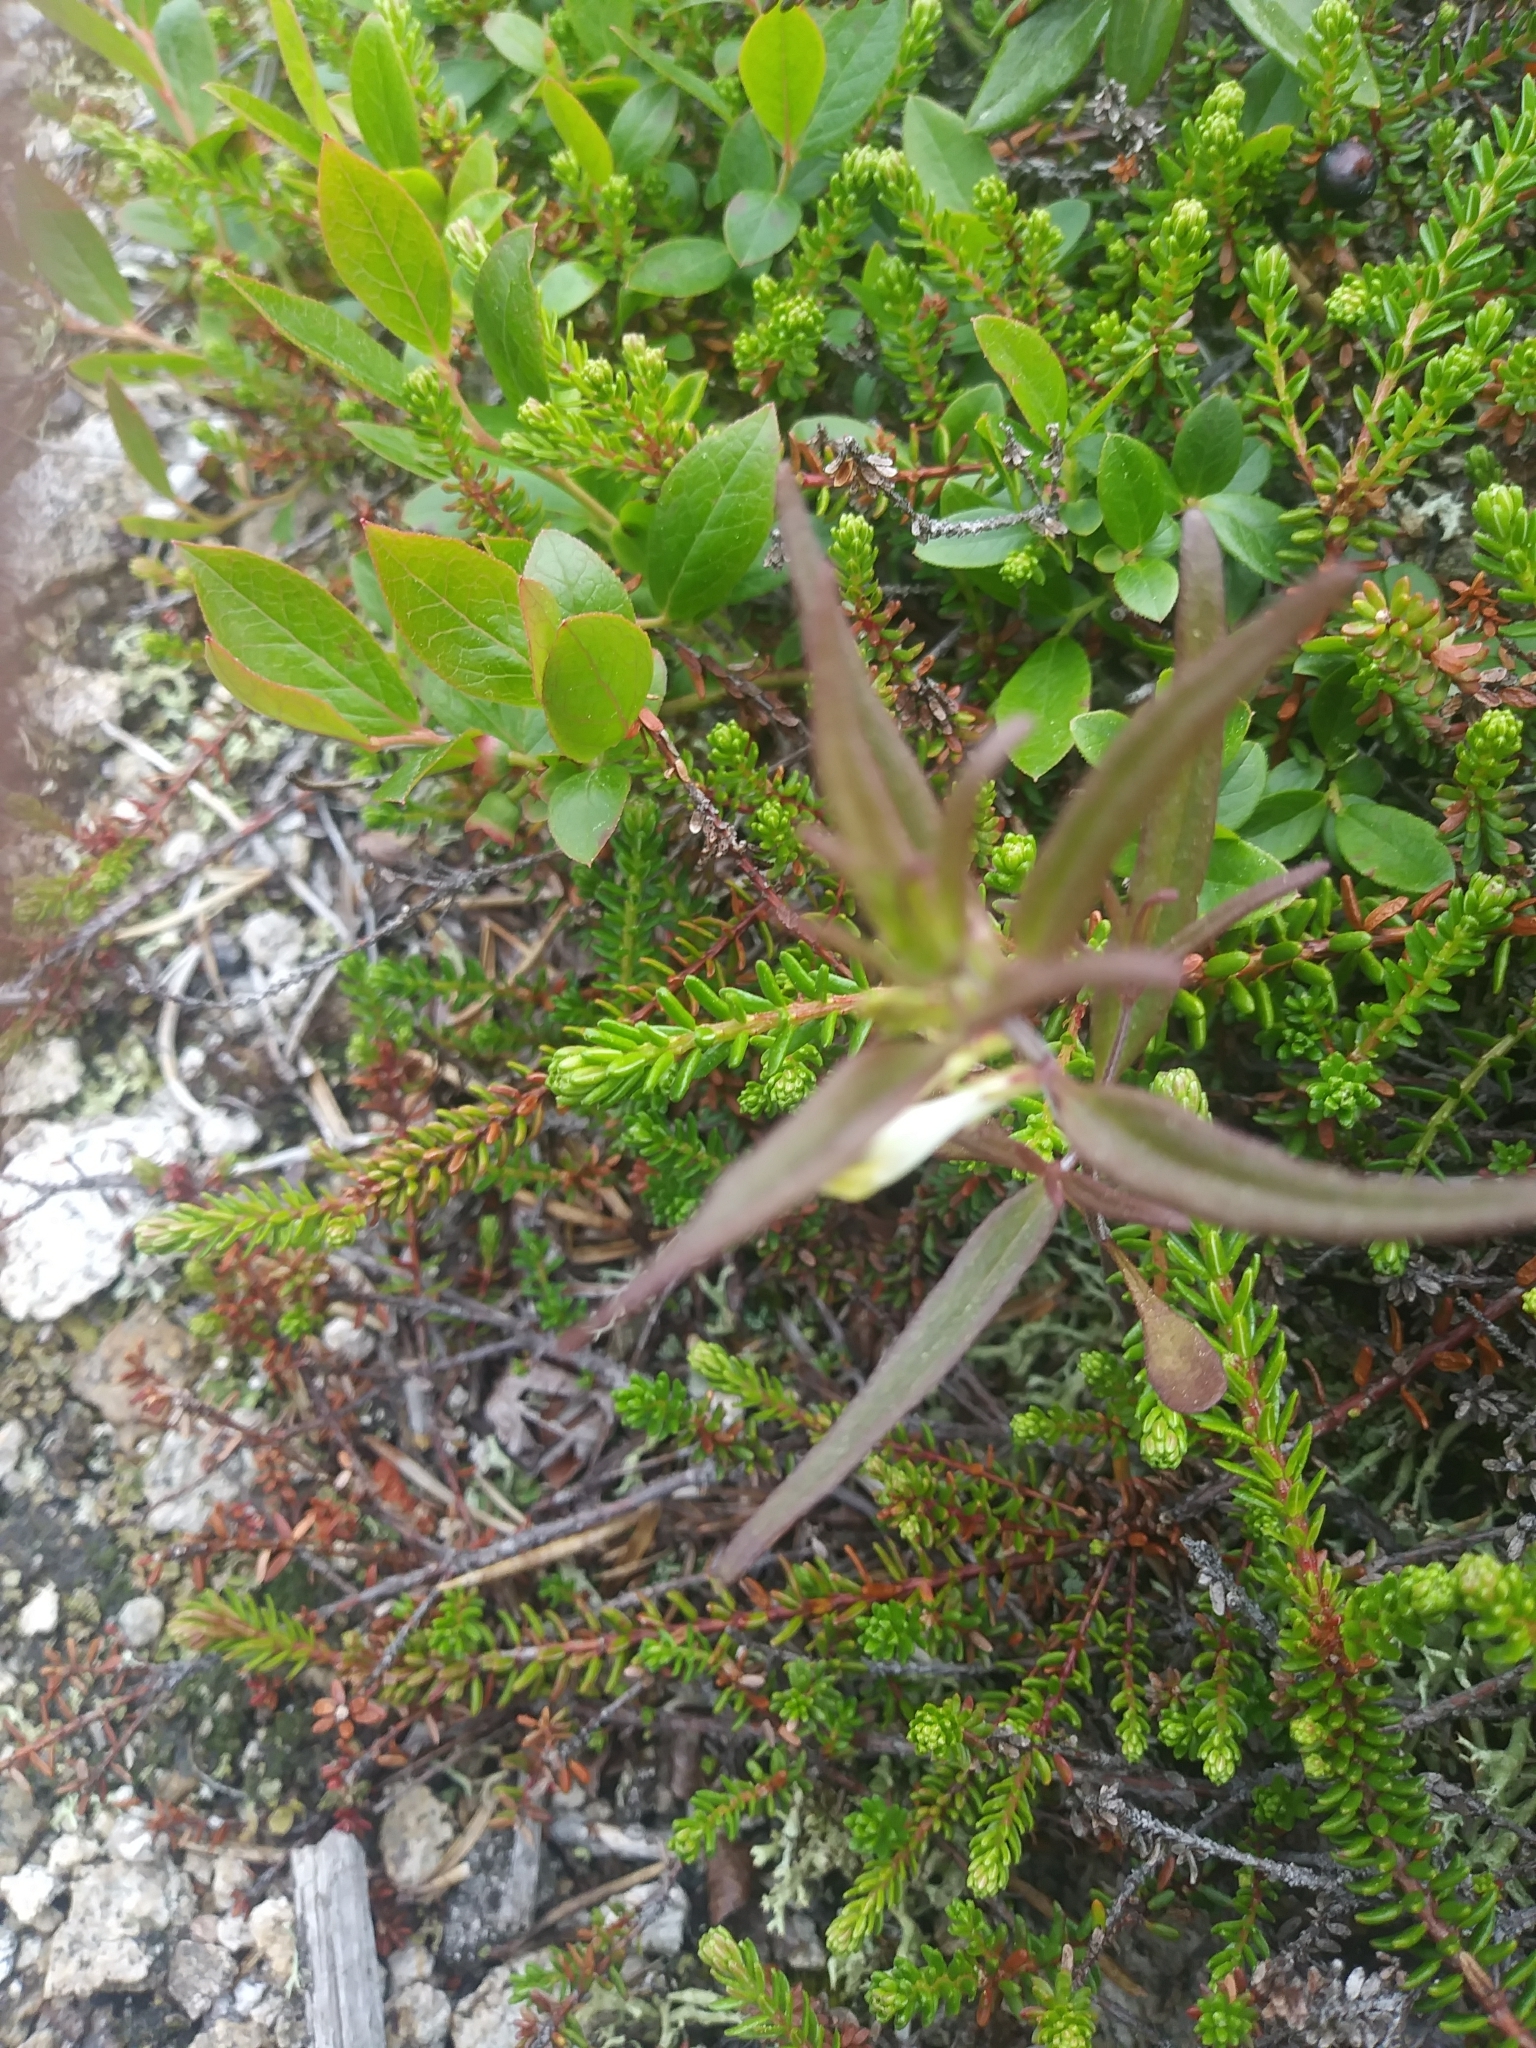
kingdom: Plantae
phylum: Tracheophyta
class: Magnoliopsida
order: Lamiales
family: Orobanchaceae
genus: Melampyrum
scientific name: Melampyrum lineare
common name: American cow-wheat
